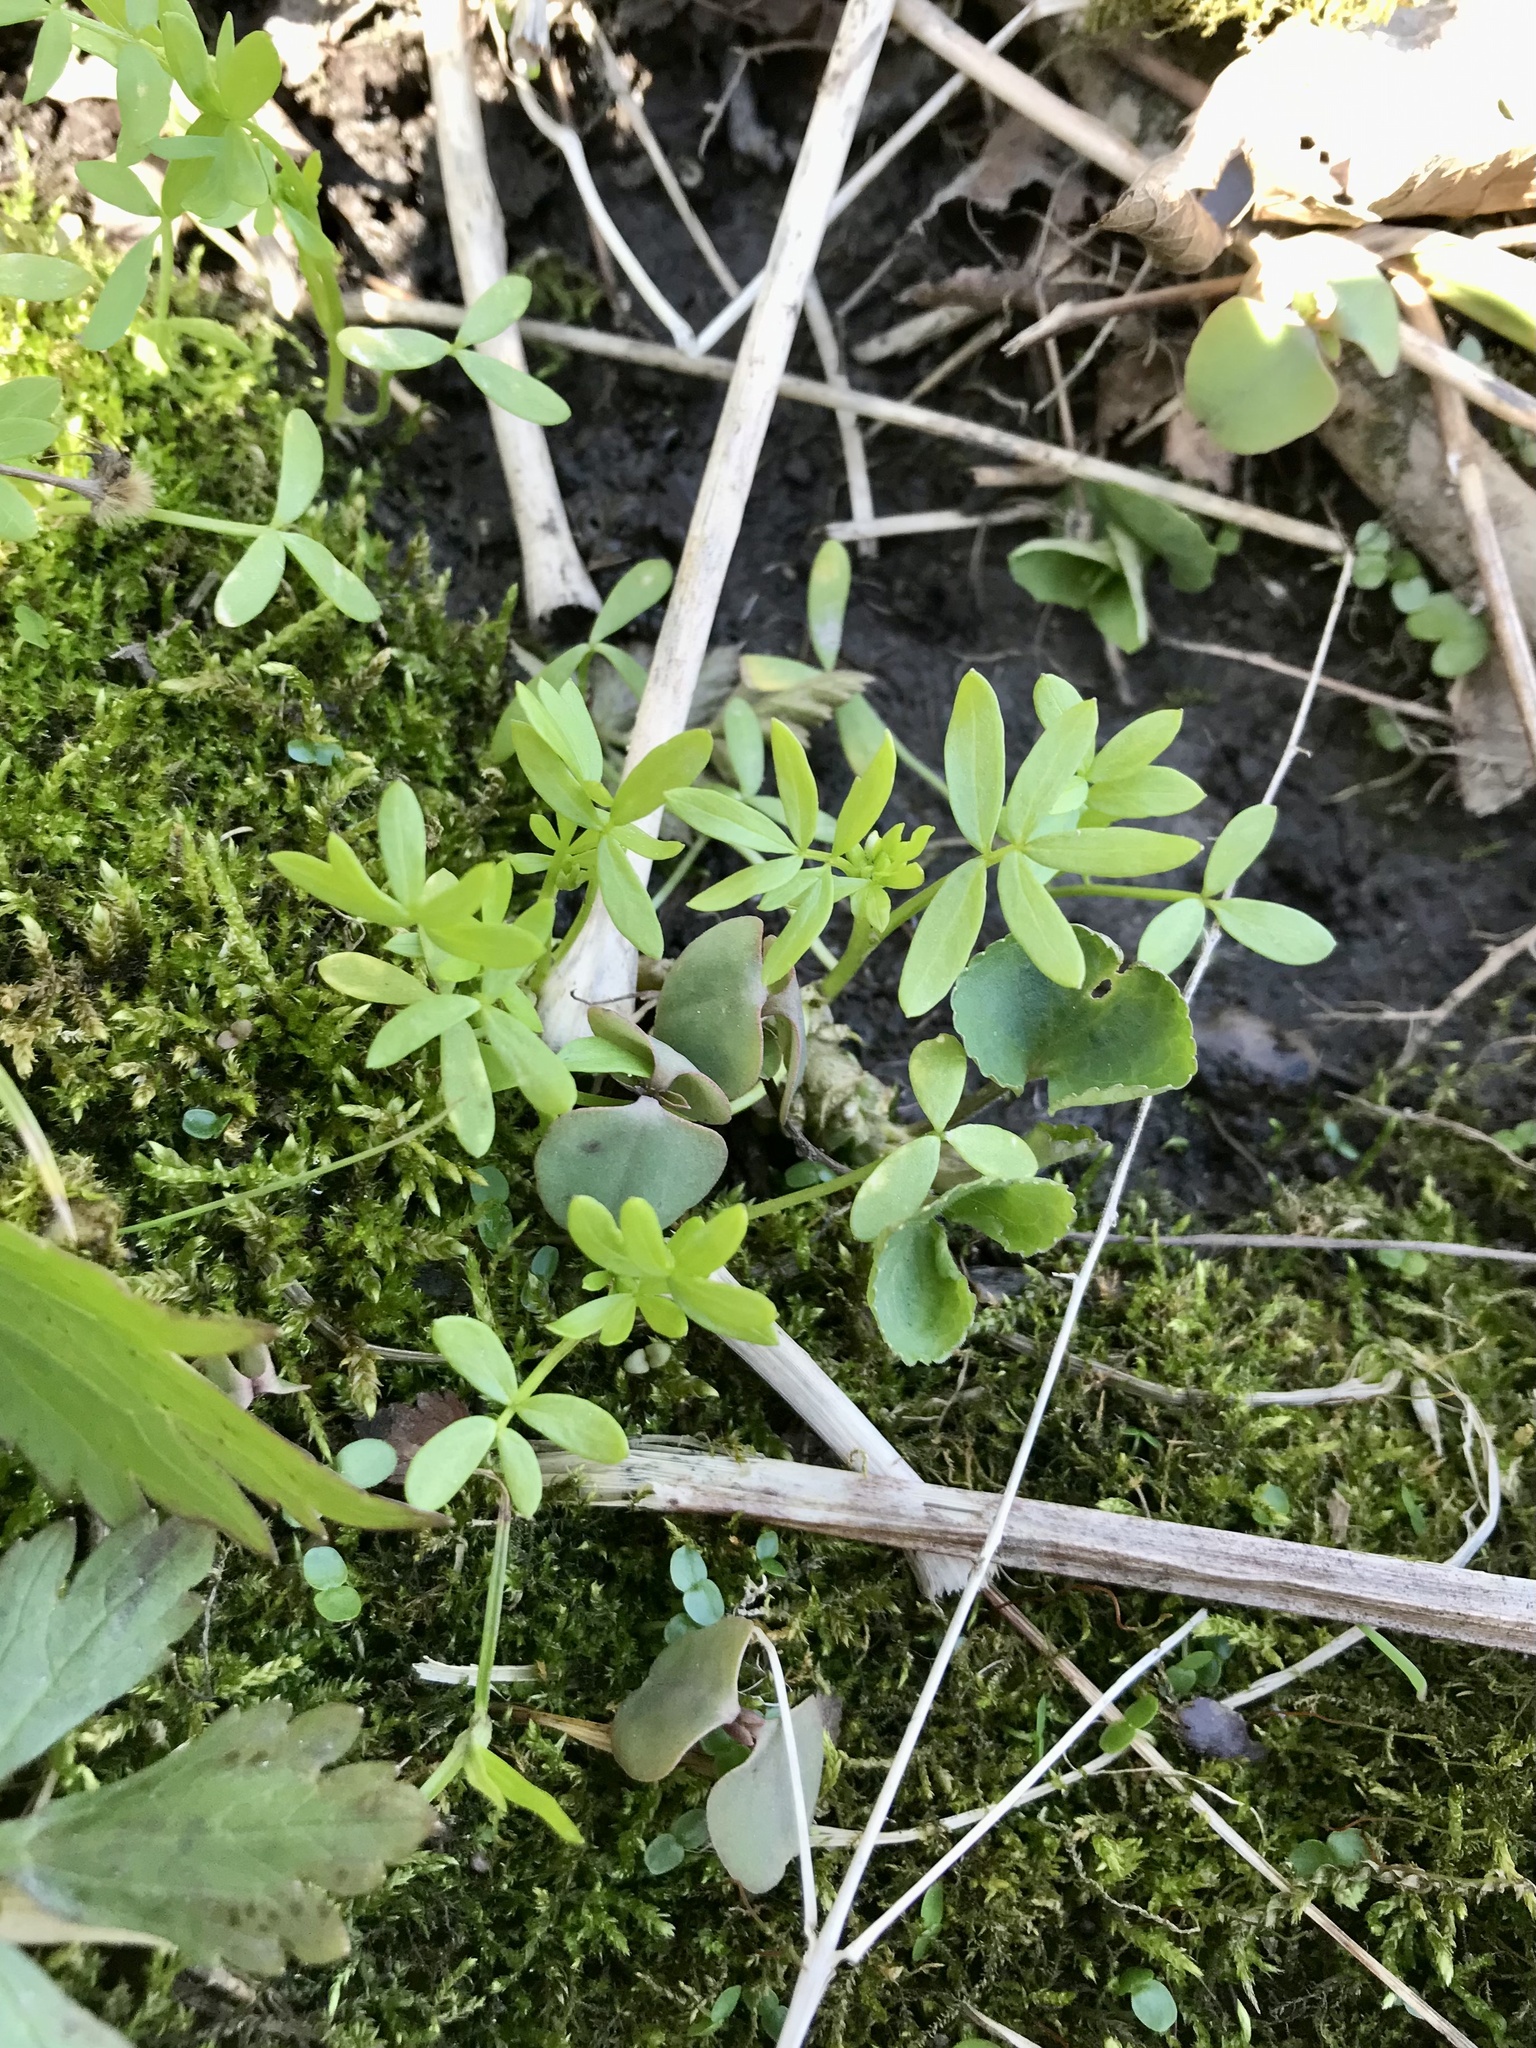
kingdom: Plantae
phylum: Tracheophyta
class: Magnoliopsida
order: Brassicales
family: Limnanthaceae
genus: Floerkea
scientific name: Floerkea proserpinacoides
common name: False mermaid
